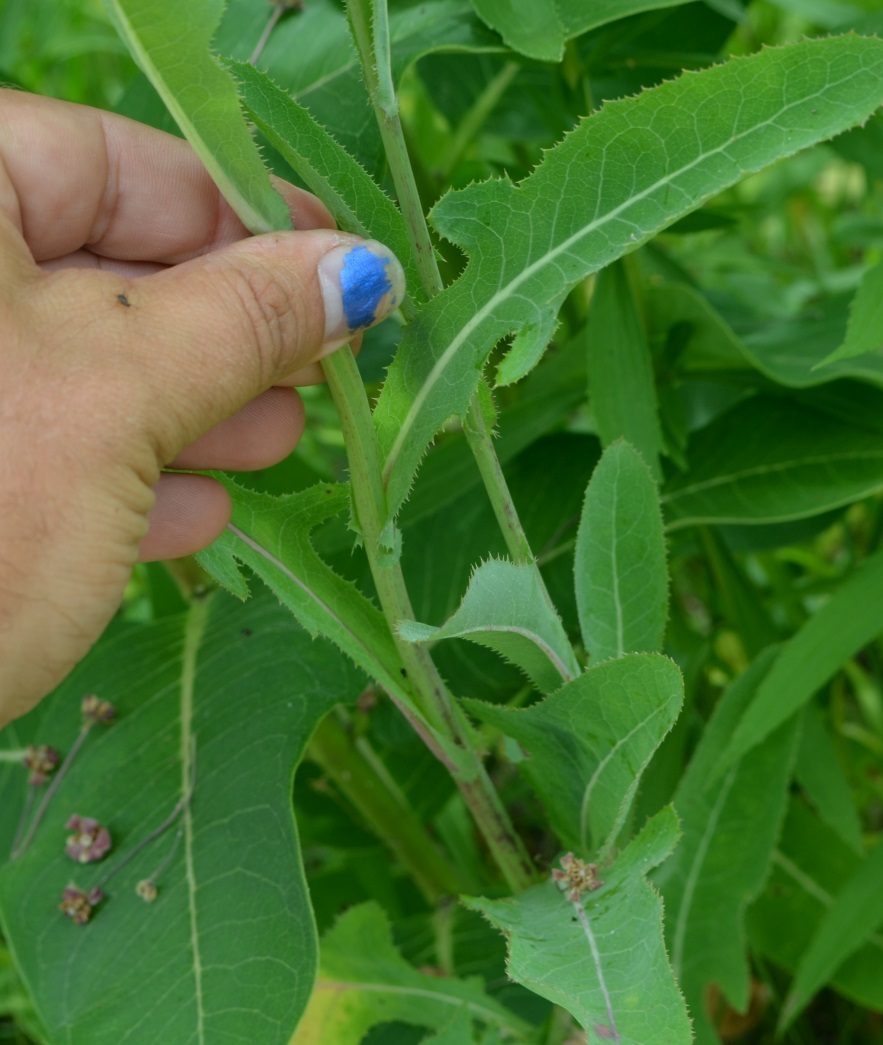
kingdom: Plantae
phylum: Tracheophyta
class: Magnoliopsida
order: Asterales
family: Asteraceae
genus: Sonchus
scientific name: Sonchus arvensis
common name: Perennial sow-thistle
